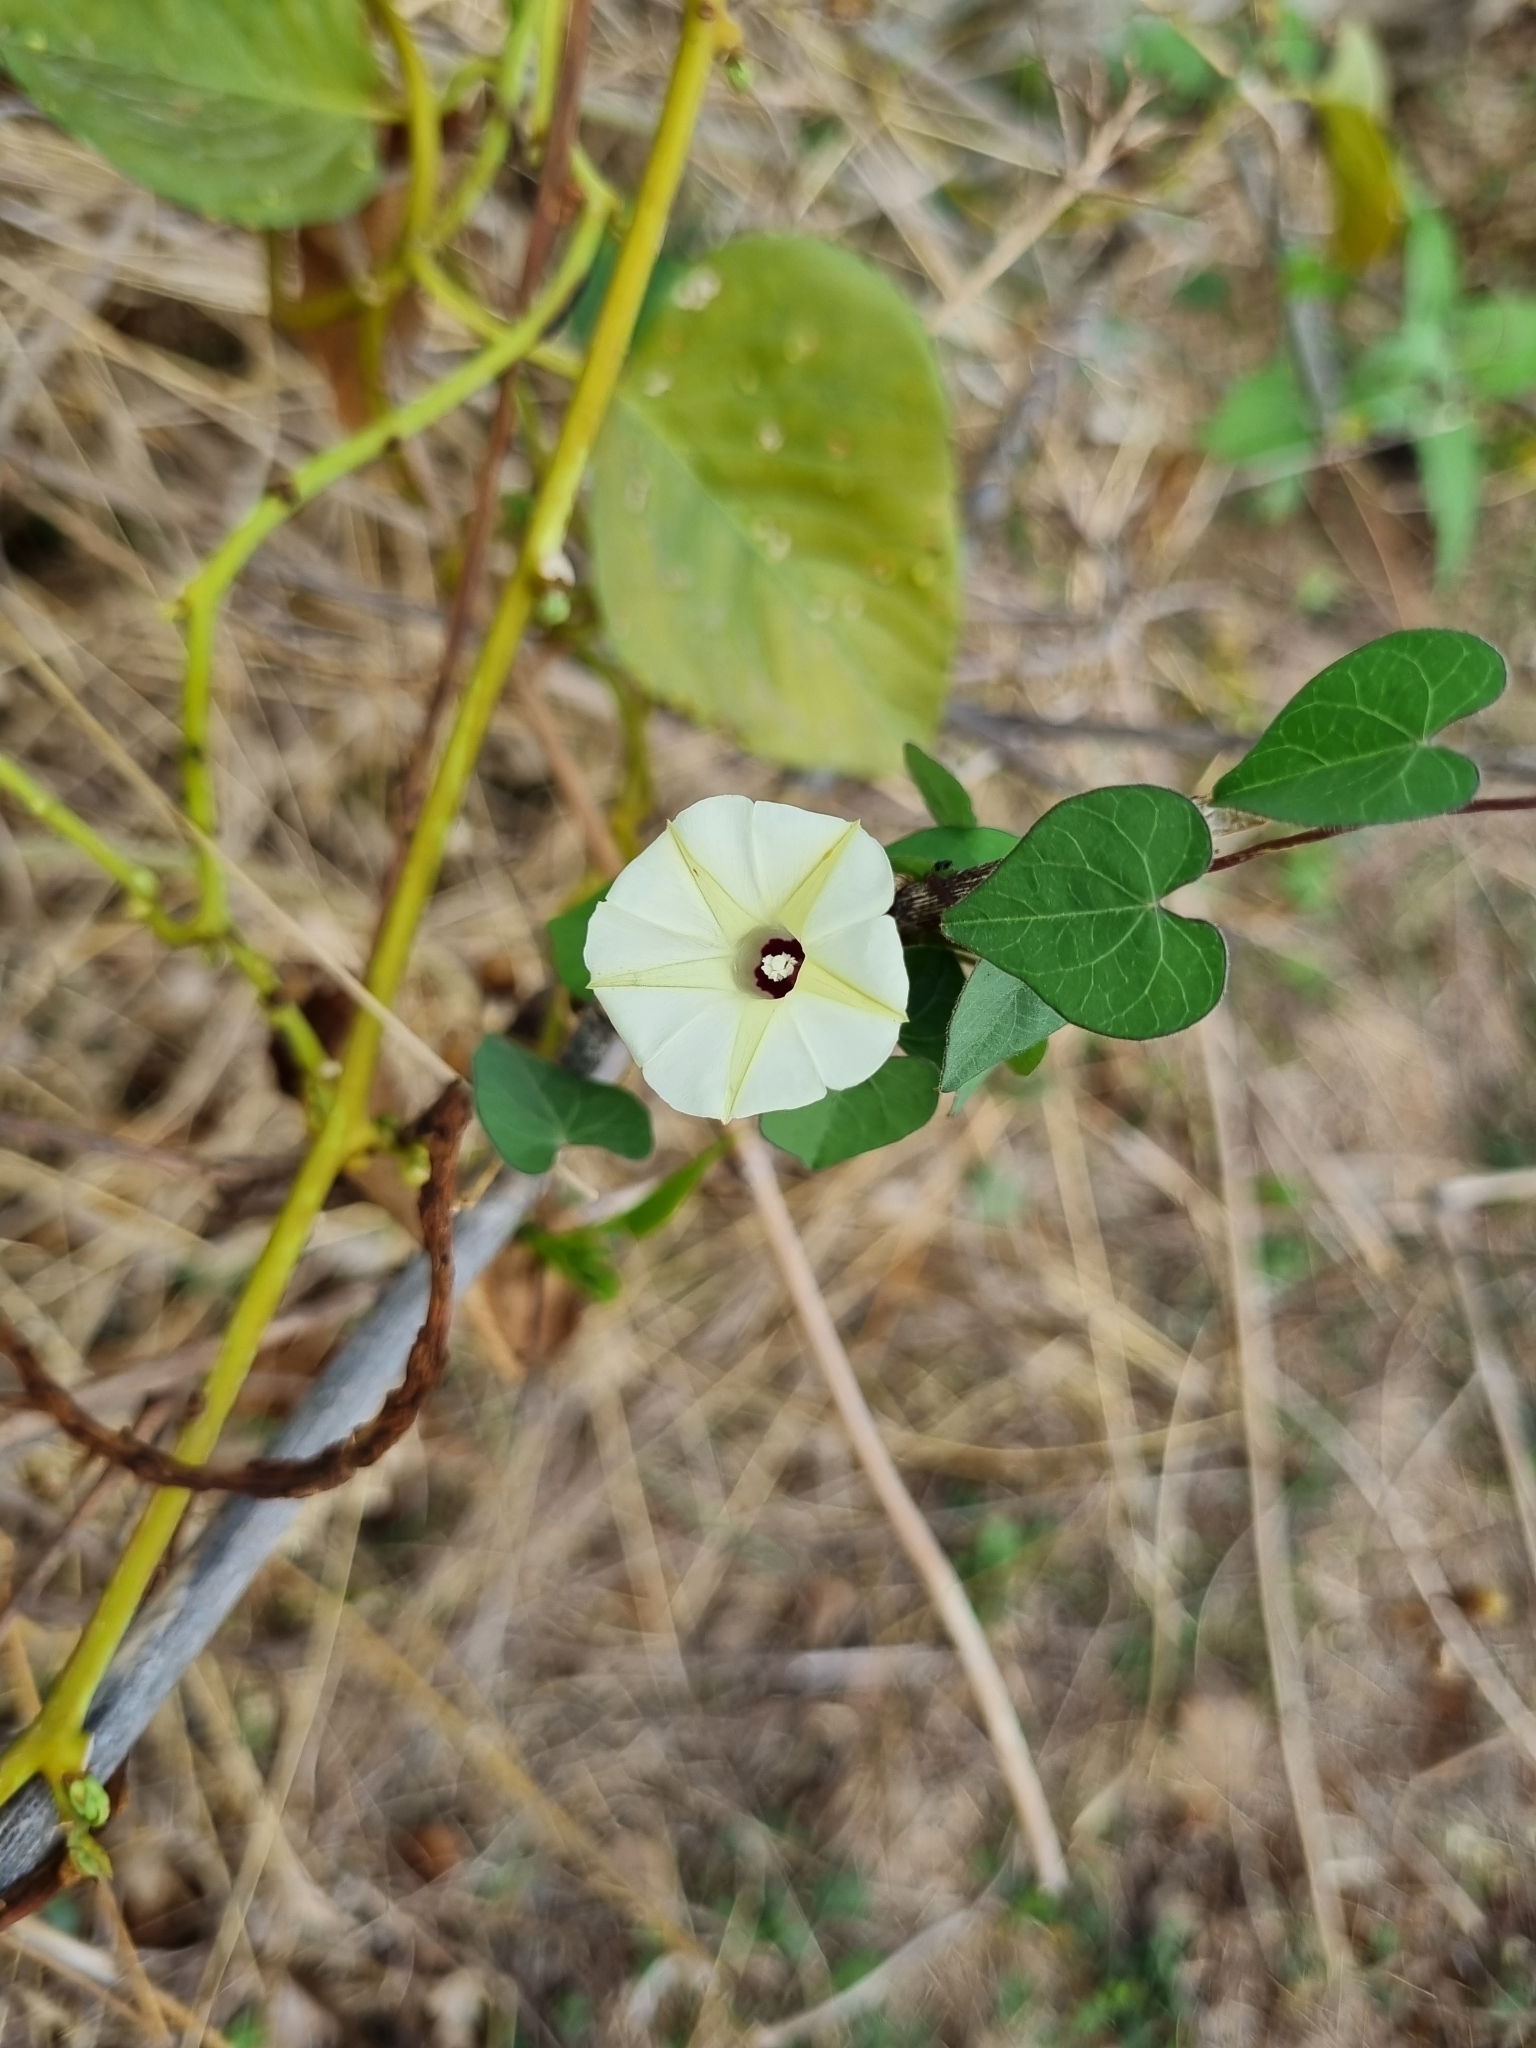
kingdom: Plantae
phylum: Tracheophyta
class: Magnoliopsida
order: Solanales
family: Convolvulaceae
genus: Ipomoea
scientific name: Ipomoea obscura
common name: Obscure morning-glory
